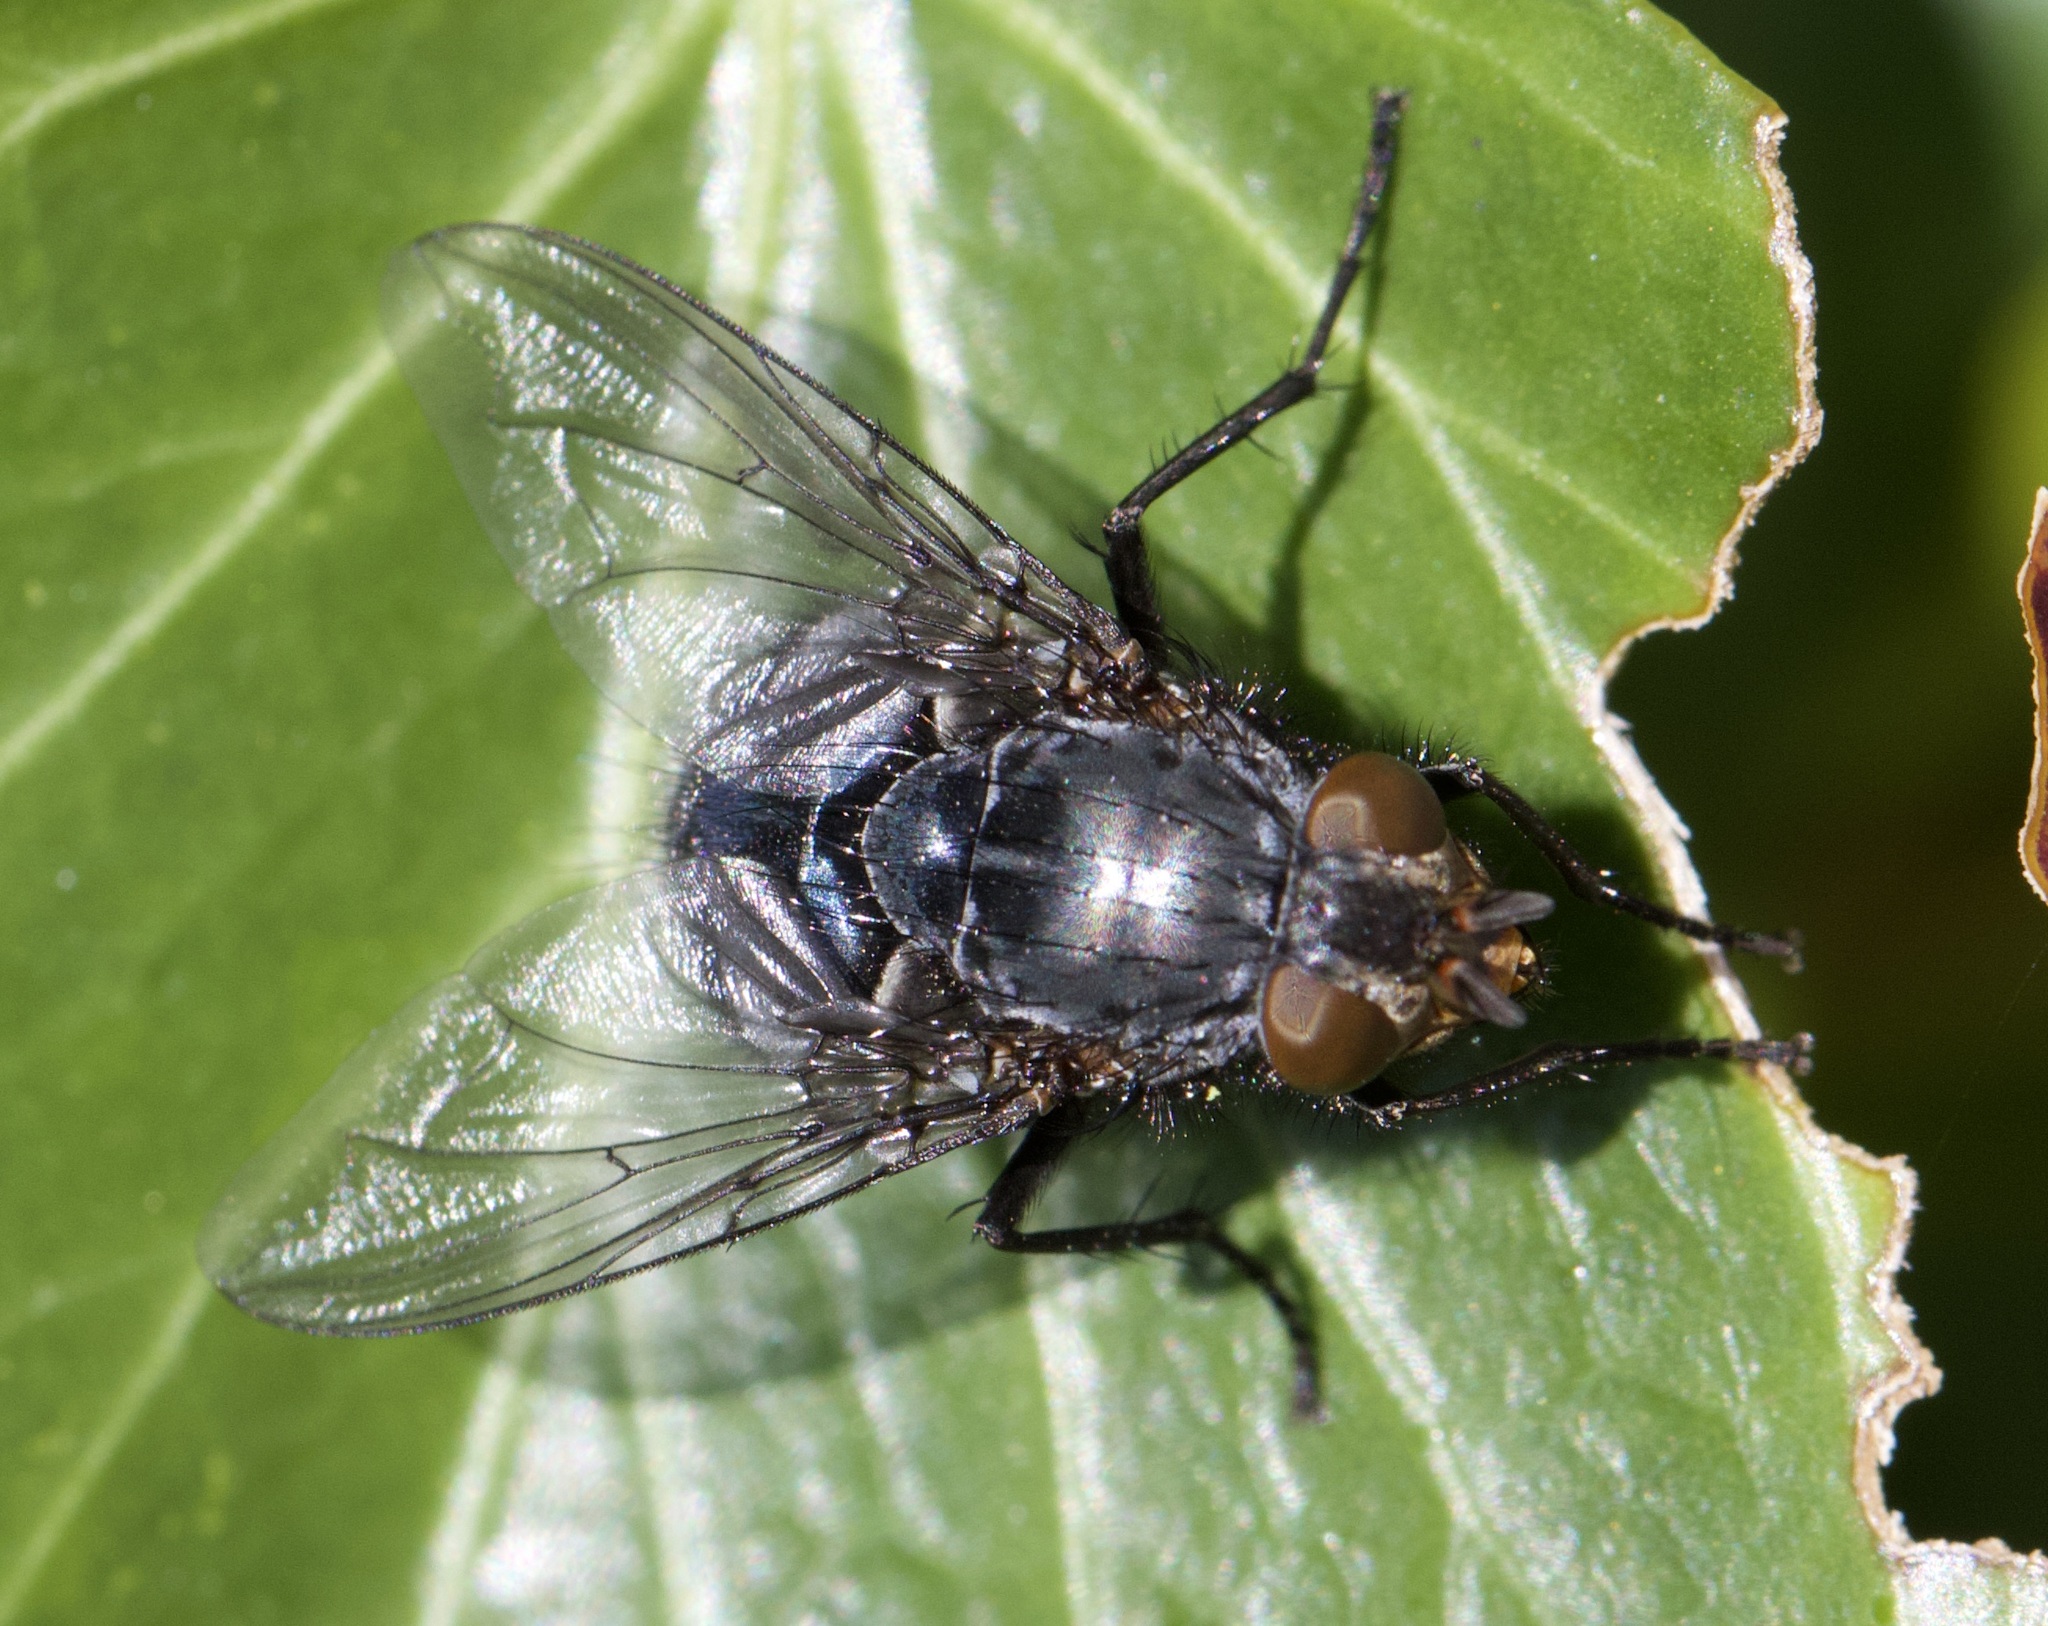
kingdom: Animalia
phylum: Arthropoda
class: Insecta
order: Diptera
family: Calliphoridae
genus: Calliphora
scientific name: Calliphora vicina
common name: Common blow flie
